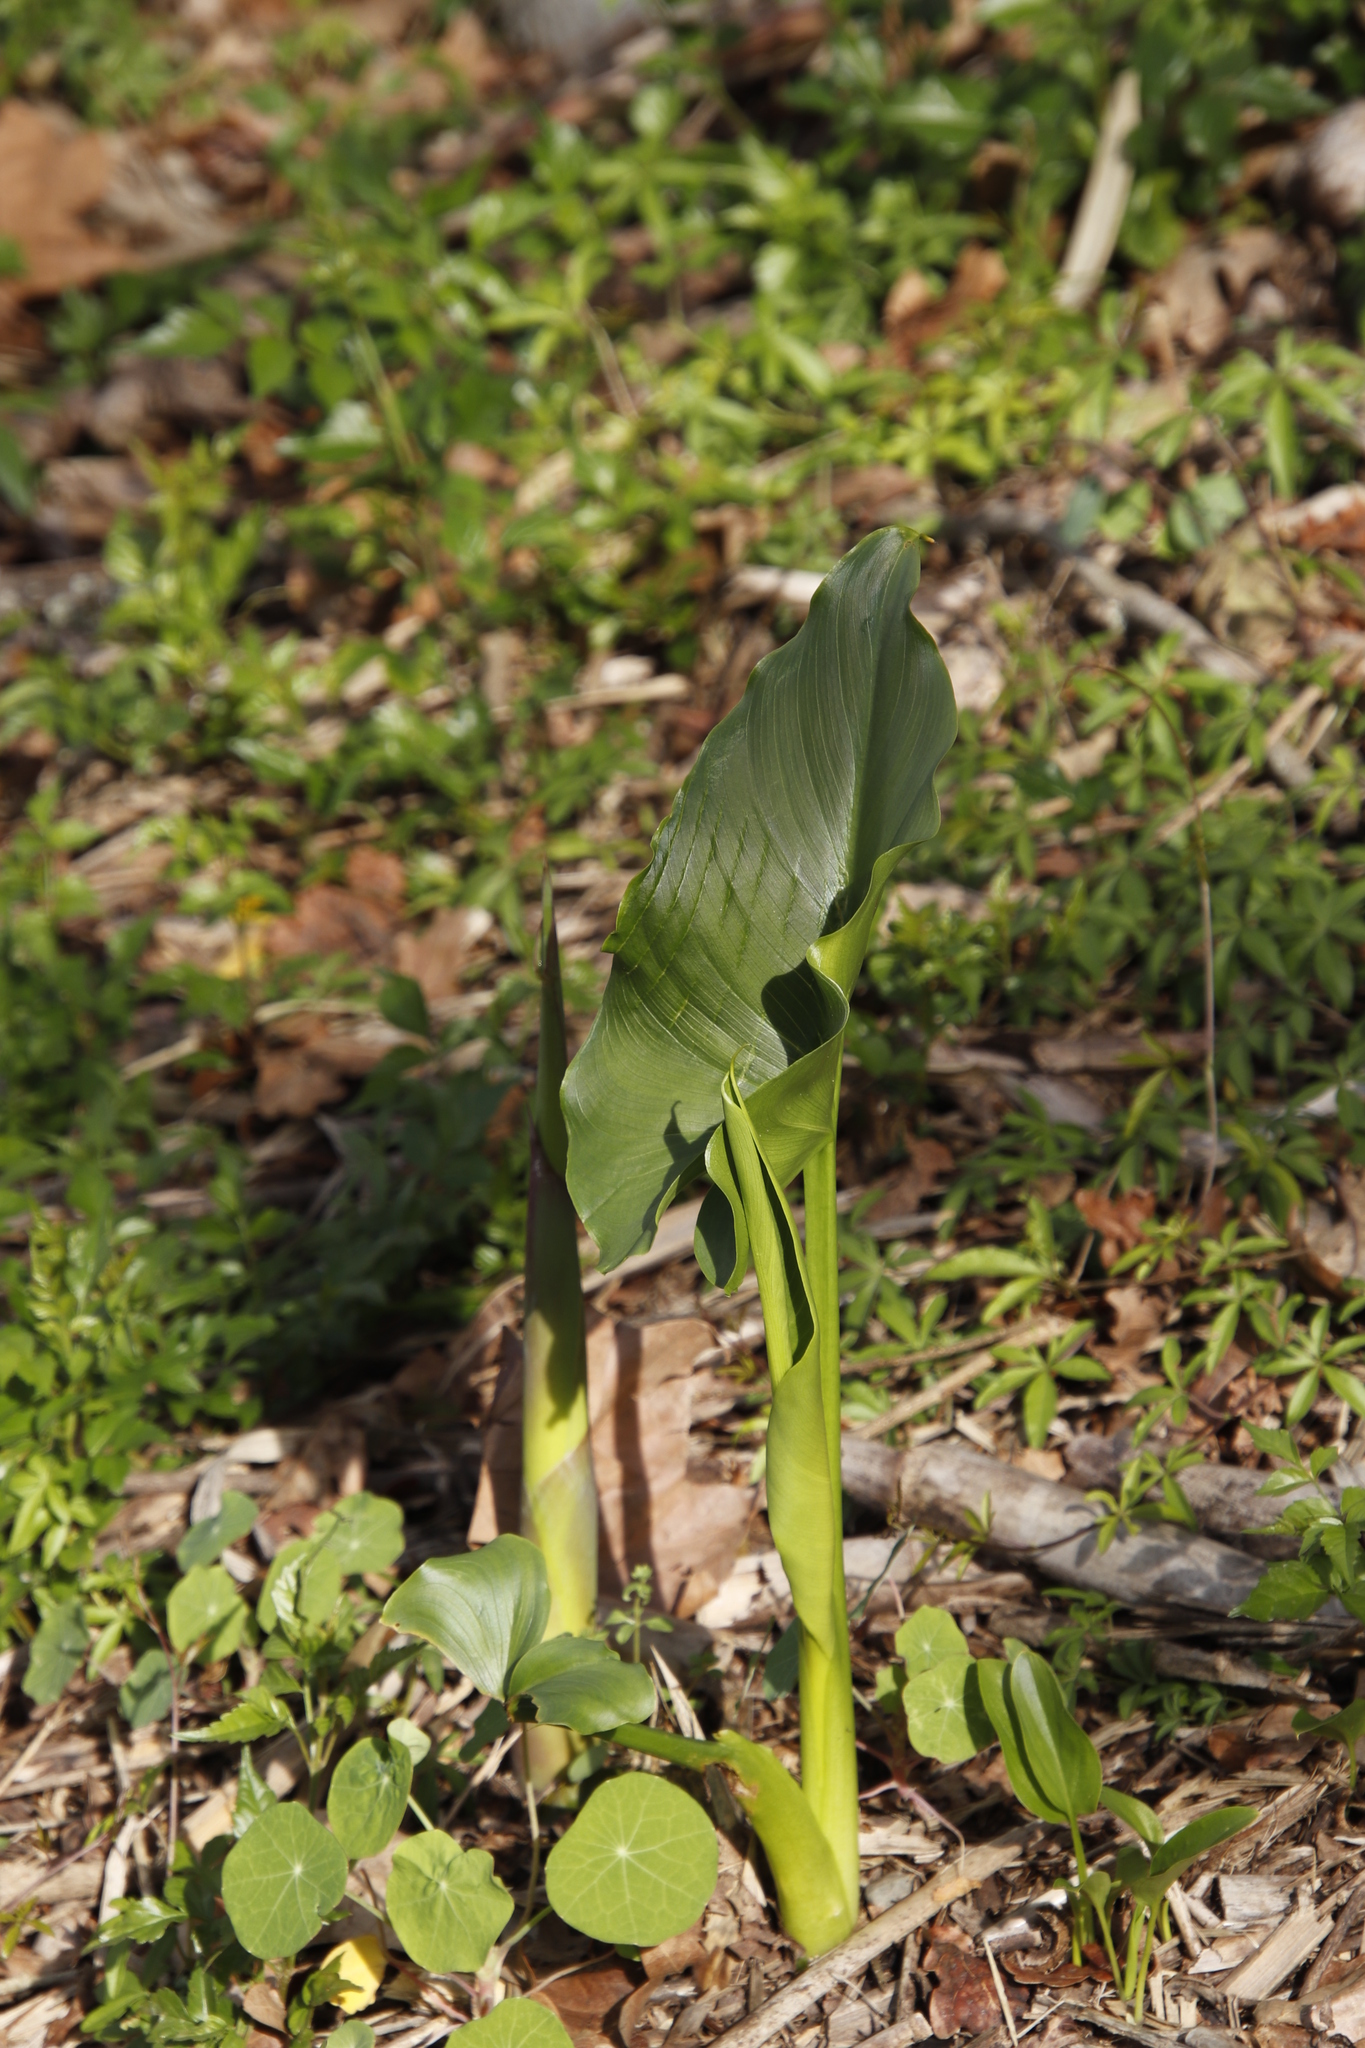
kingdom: Plantae
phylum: Tracheophyta
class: Liliopsida
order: Alismatales
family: Araceae
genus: Zantedeschia
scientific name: Zantedeschia aethiopica
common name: Altar-lily
